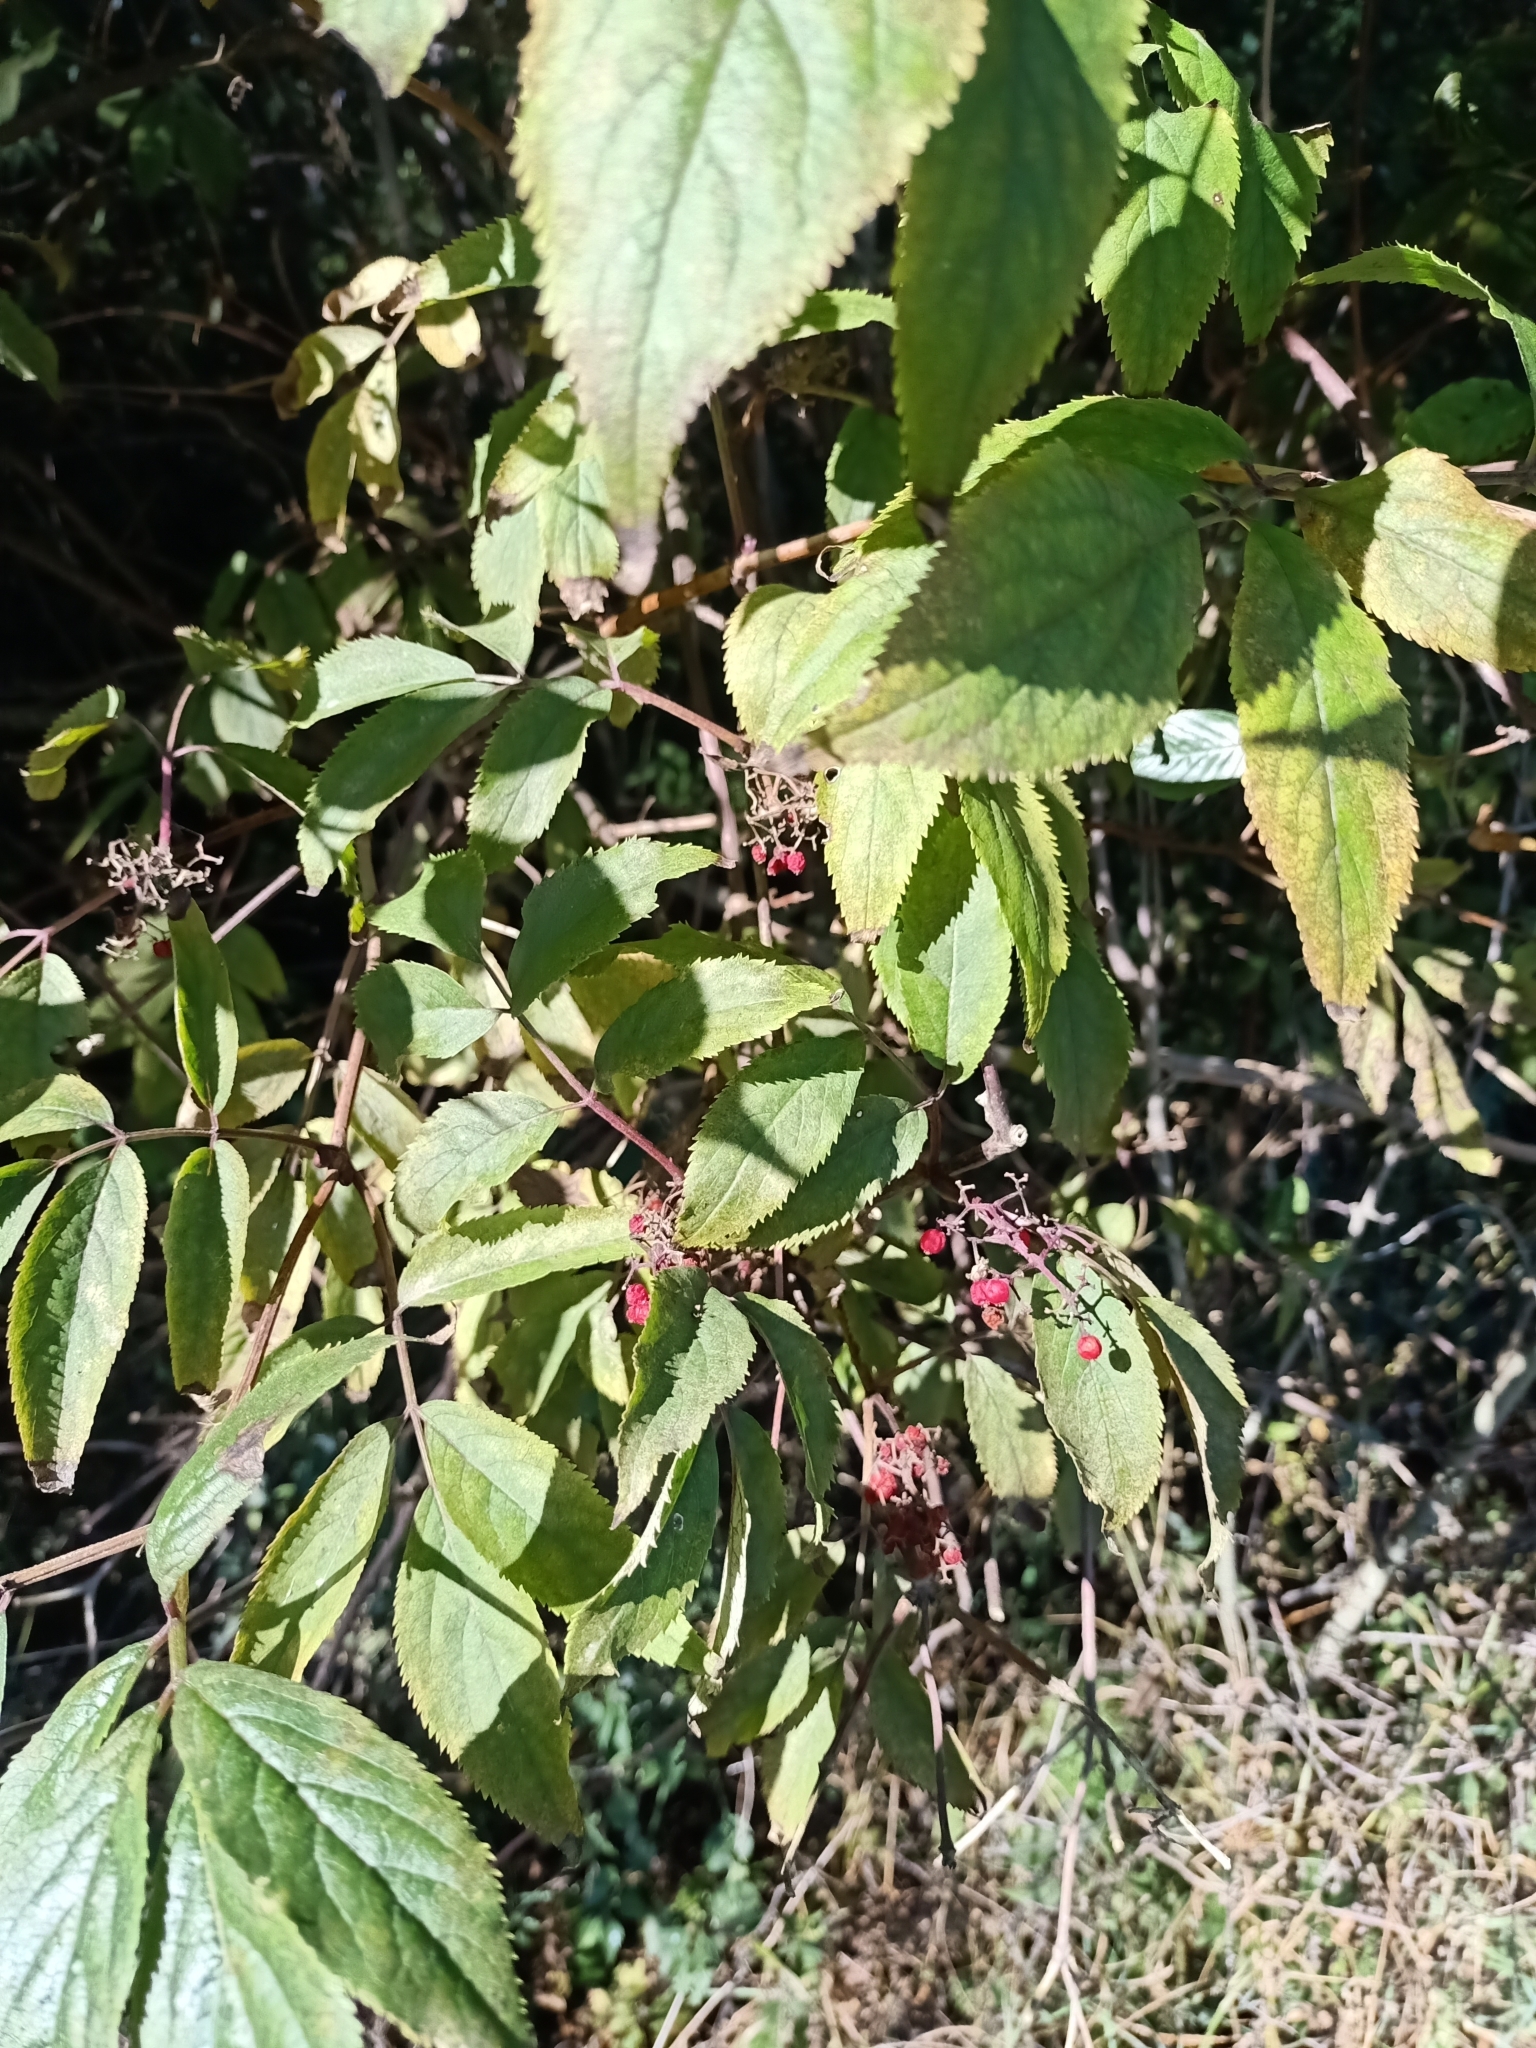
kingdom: Plantae
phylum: Tracheophyta
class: Magnoliopsida
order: Dipsacales
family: Viburnaceae
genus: Sambucus
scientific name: Sambucus racemosa
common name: Red-berried elder
